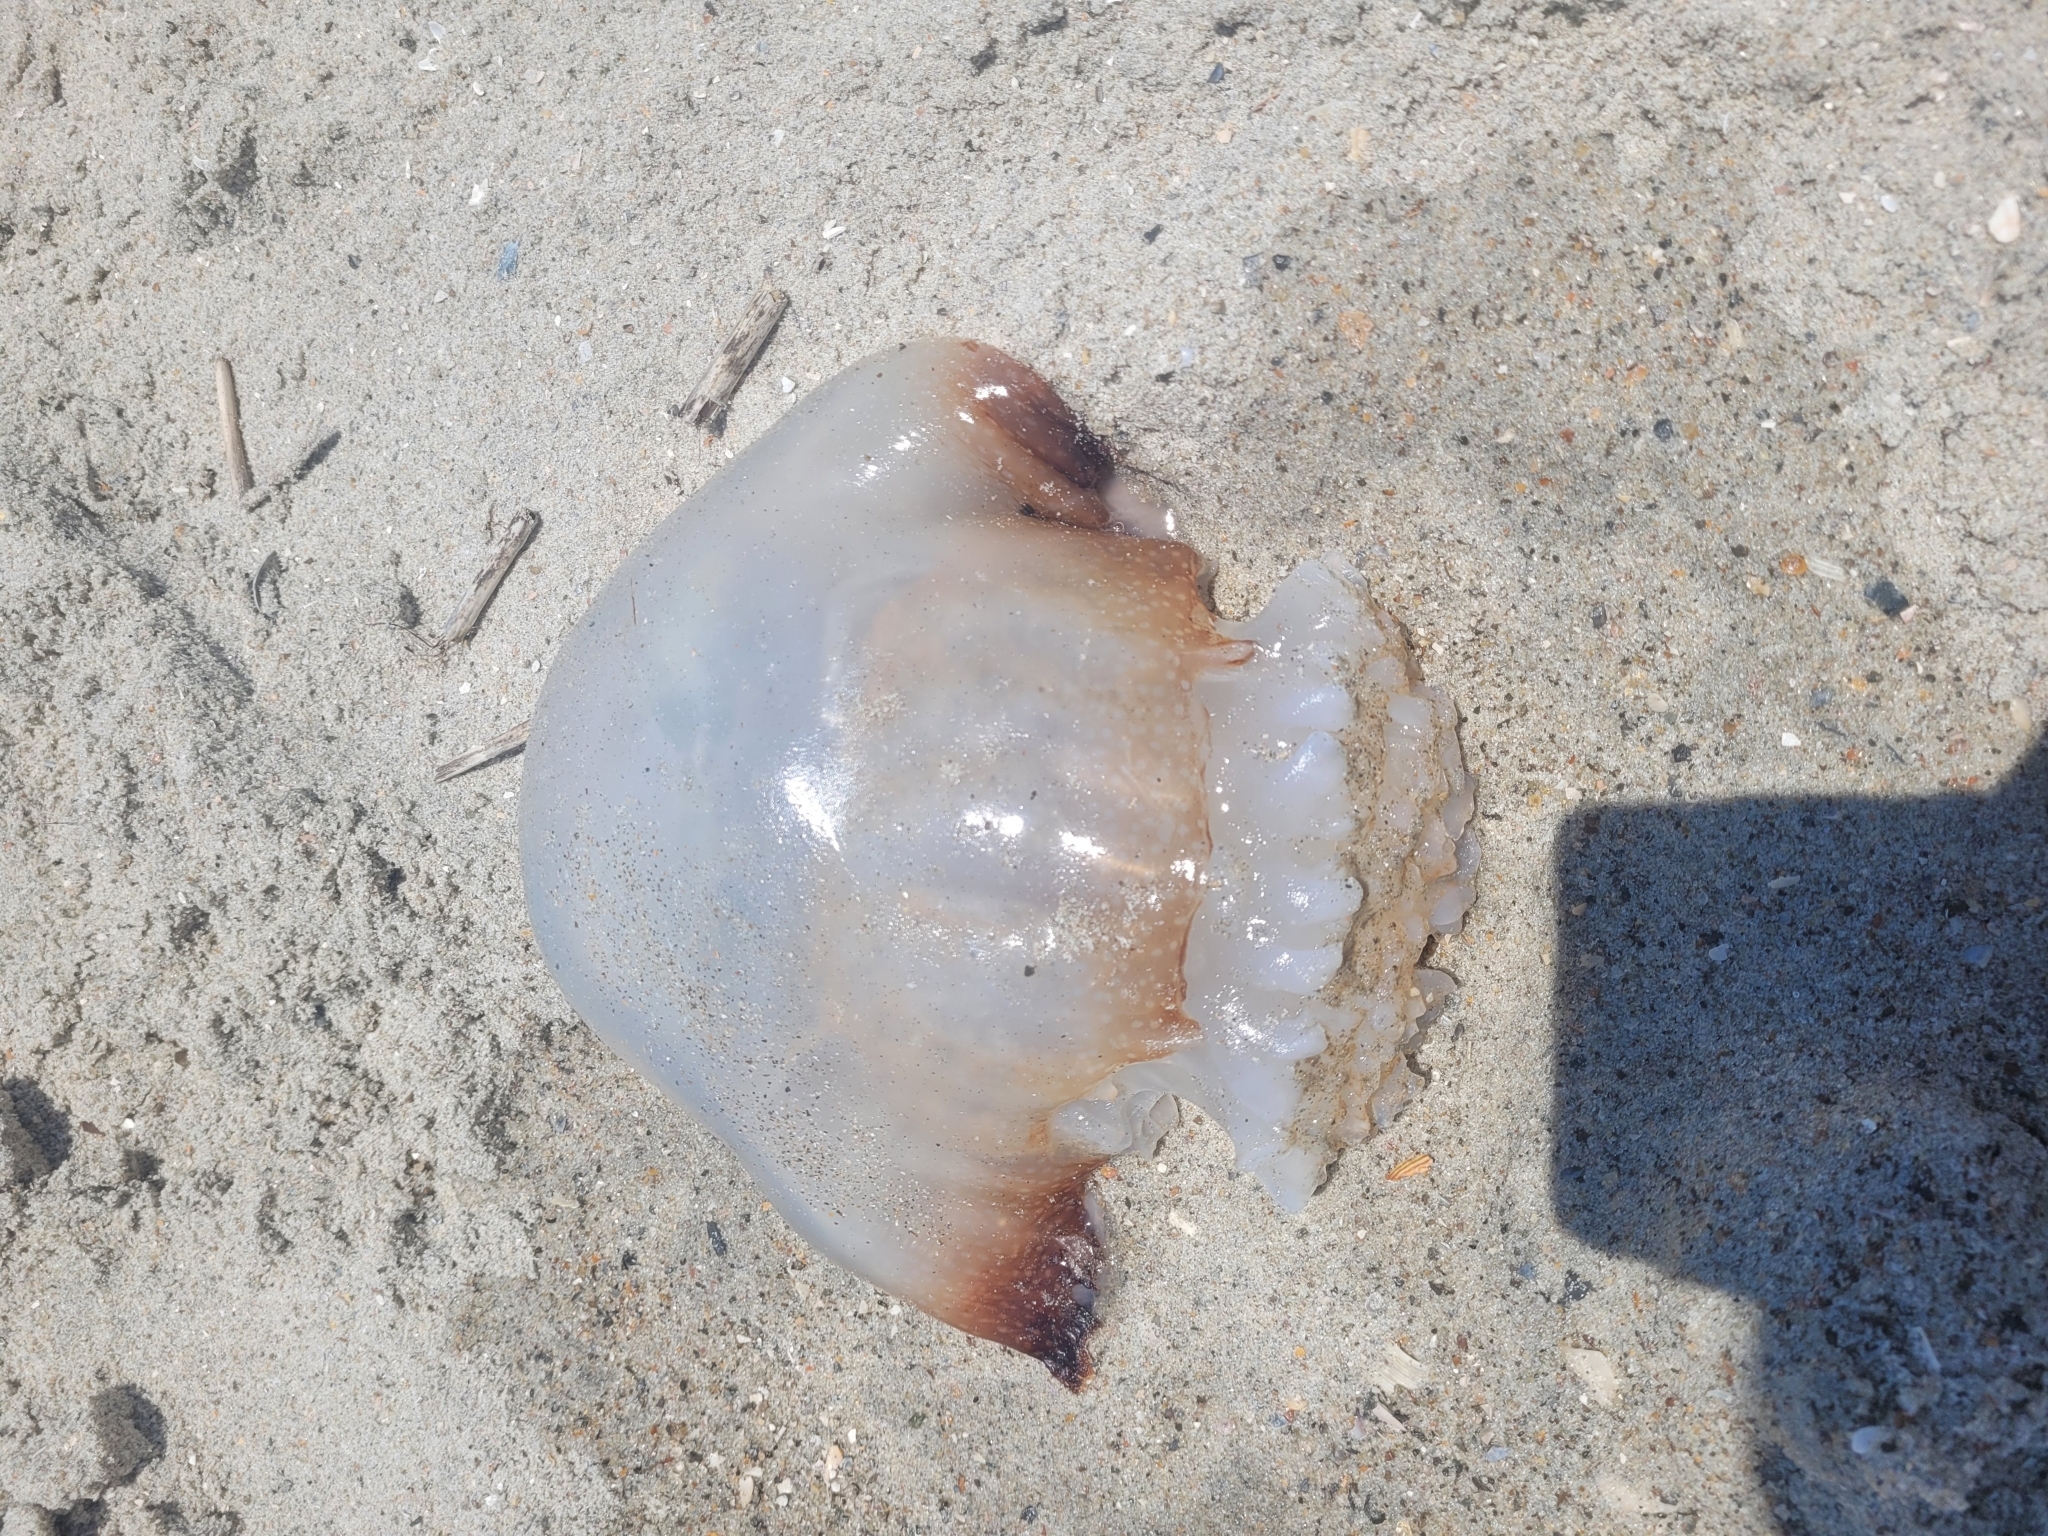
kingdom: Animalia
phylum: Cnidaria
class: Scyphozoa
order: Rhizostomeae
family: Stomolophidae
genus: Stomolophus
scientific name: Stomolophus meleagris
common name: Cabbagehead
